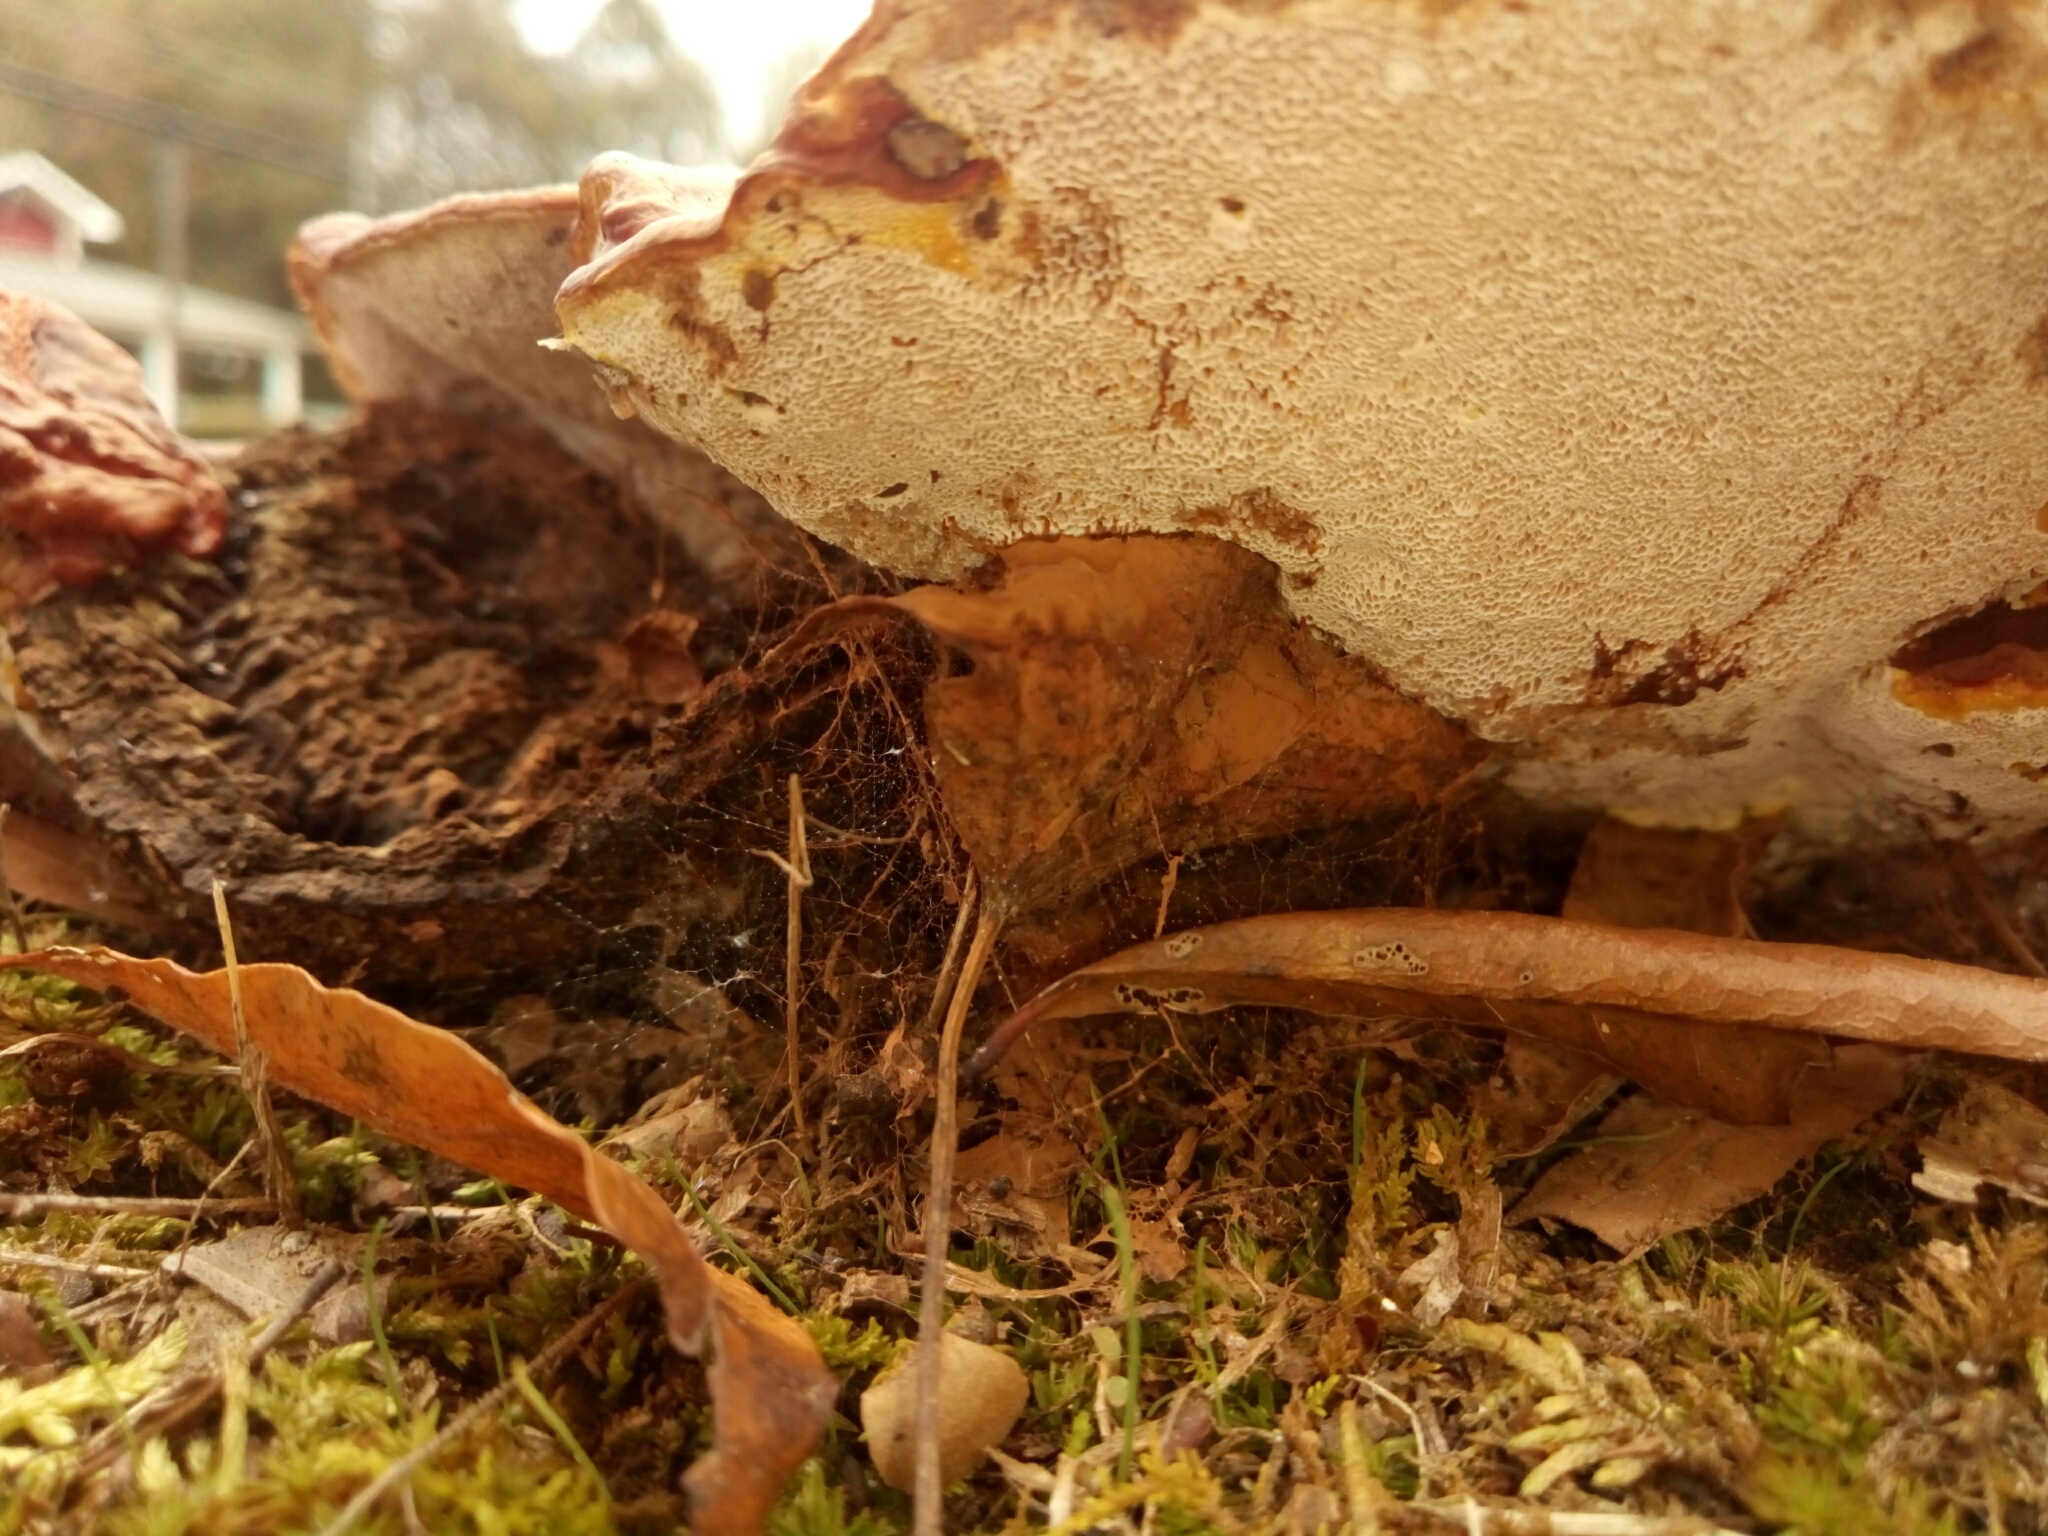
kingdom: Fungi
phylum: Basidiomycota
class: Agaricomycetes
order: Polyporales
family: Polyporaceae
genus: Ganoderma
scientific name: Ganoderma resinaceum
